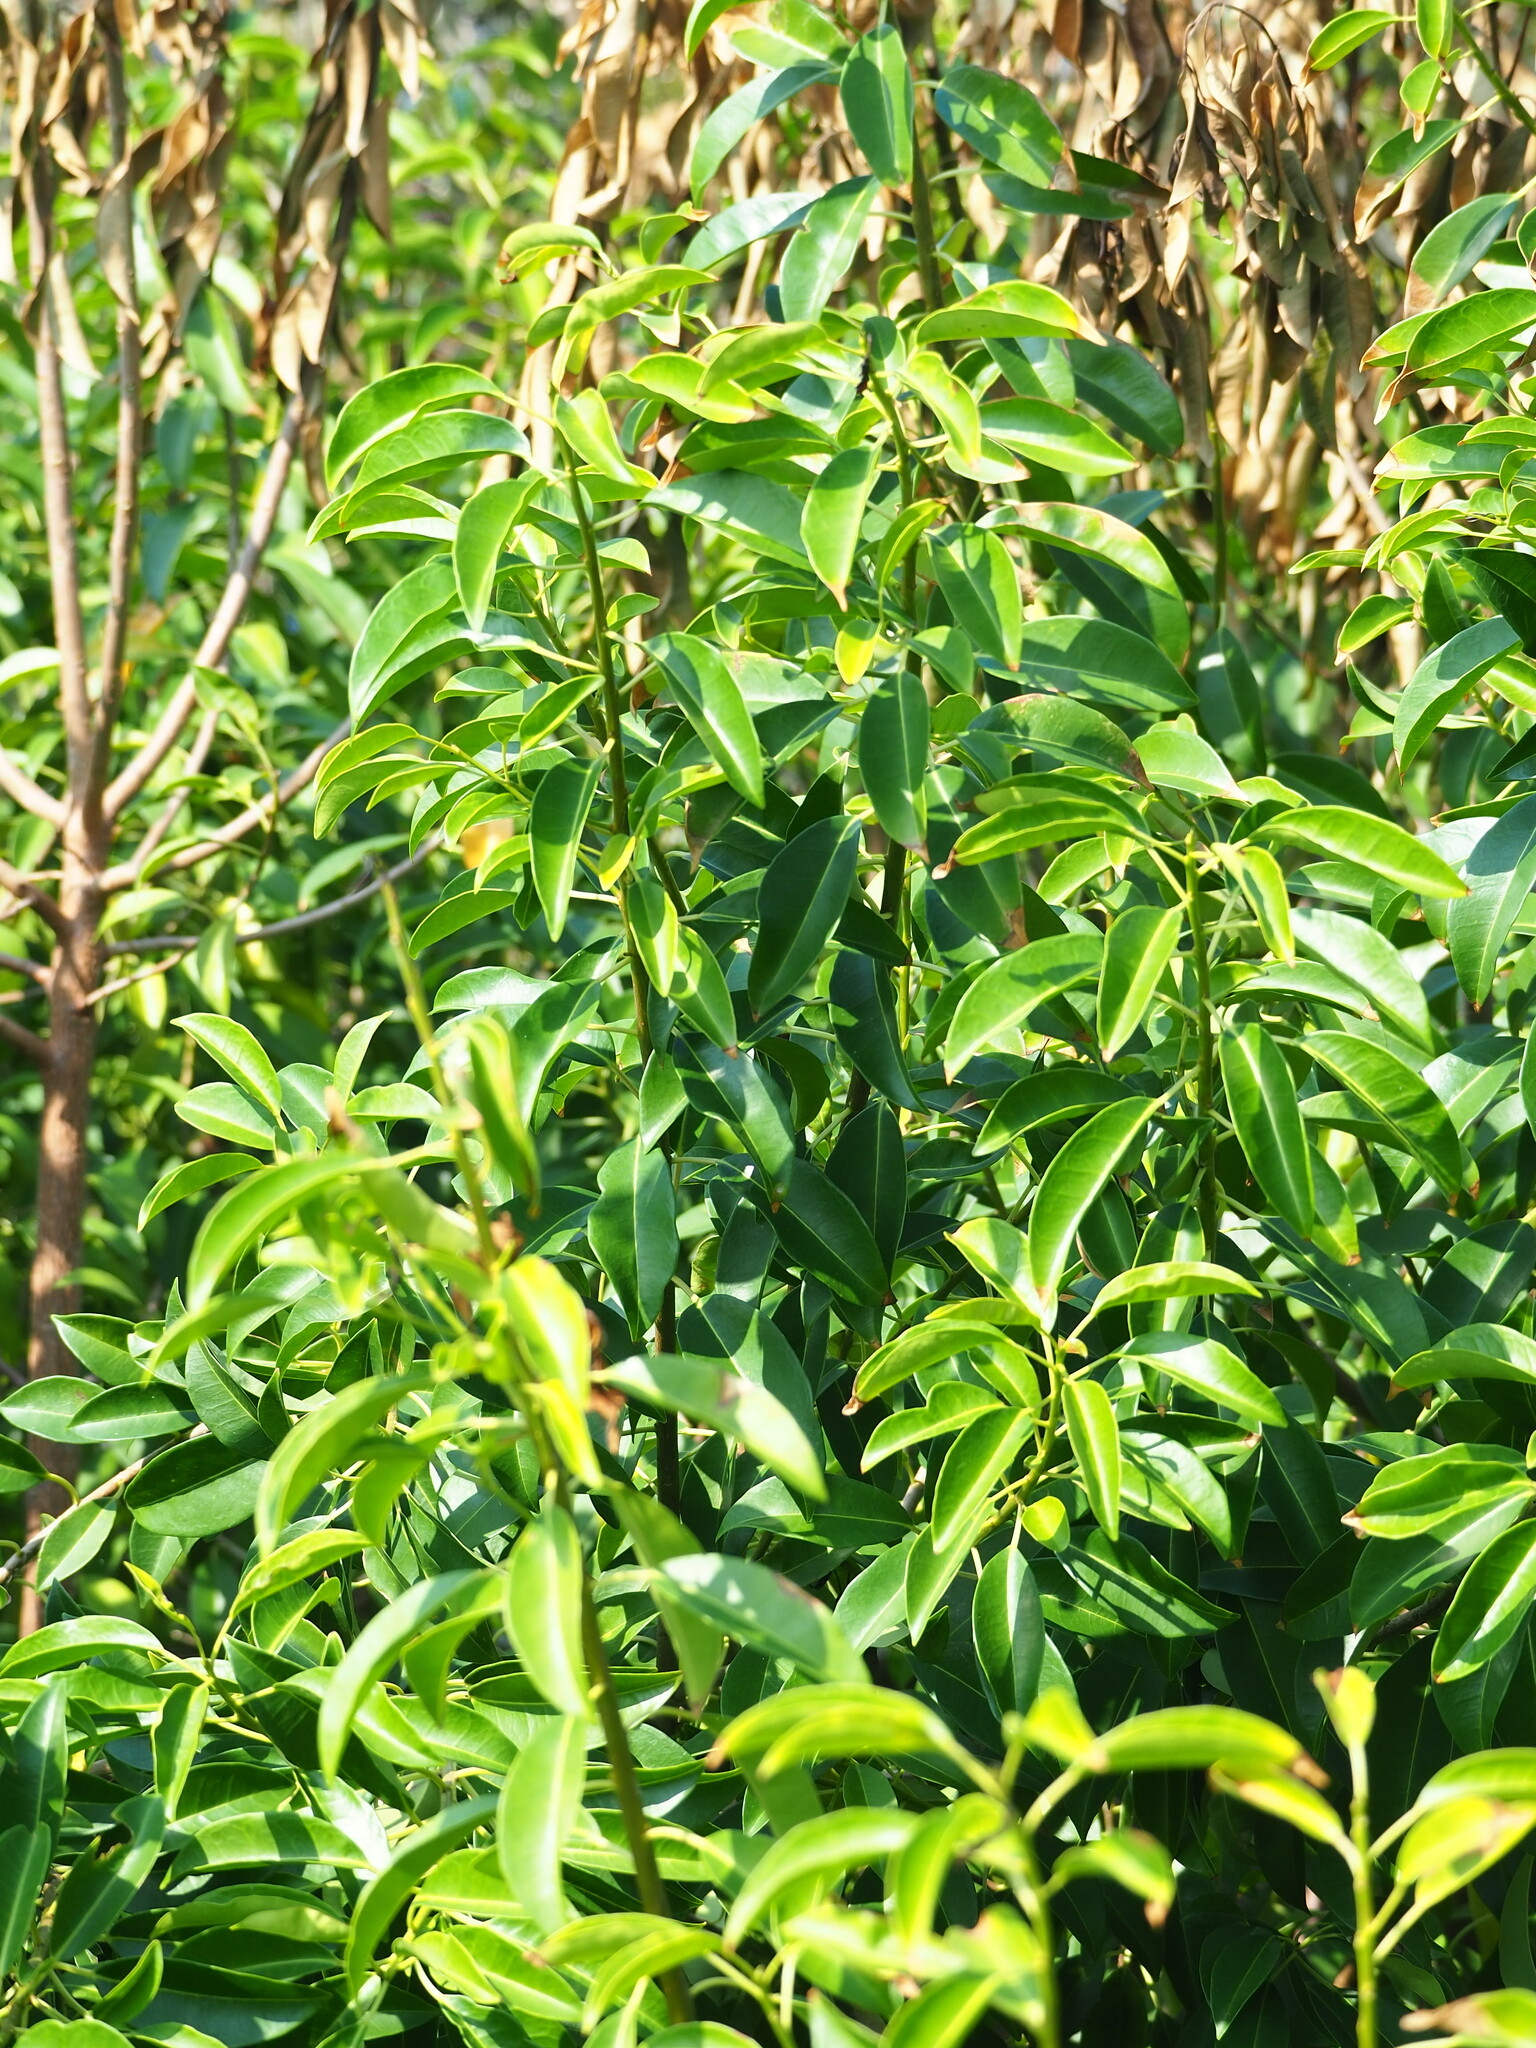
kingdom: Plantae
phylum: Tracheophyta
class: Magnoliopsida
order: Malpighiales
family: Euphorbiaceae
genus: Excoecaria
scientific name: Excoecaria agallocha
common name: River poisontree
